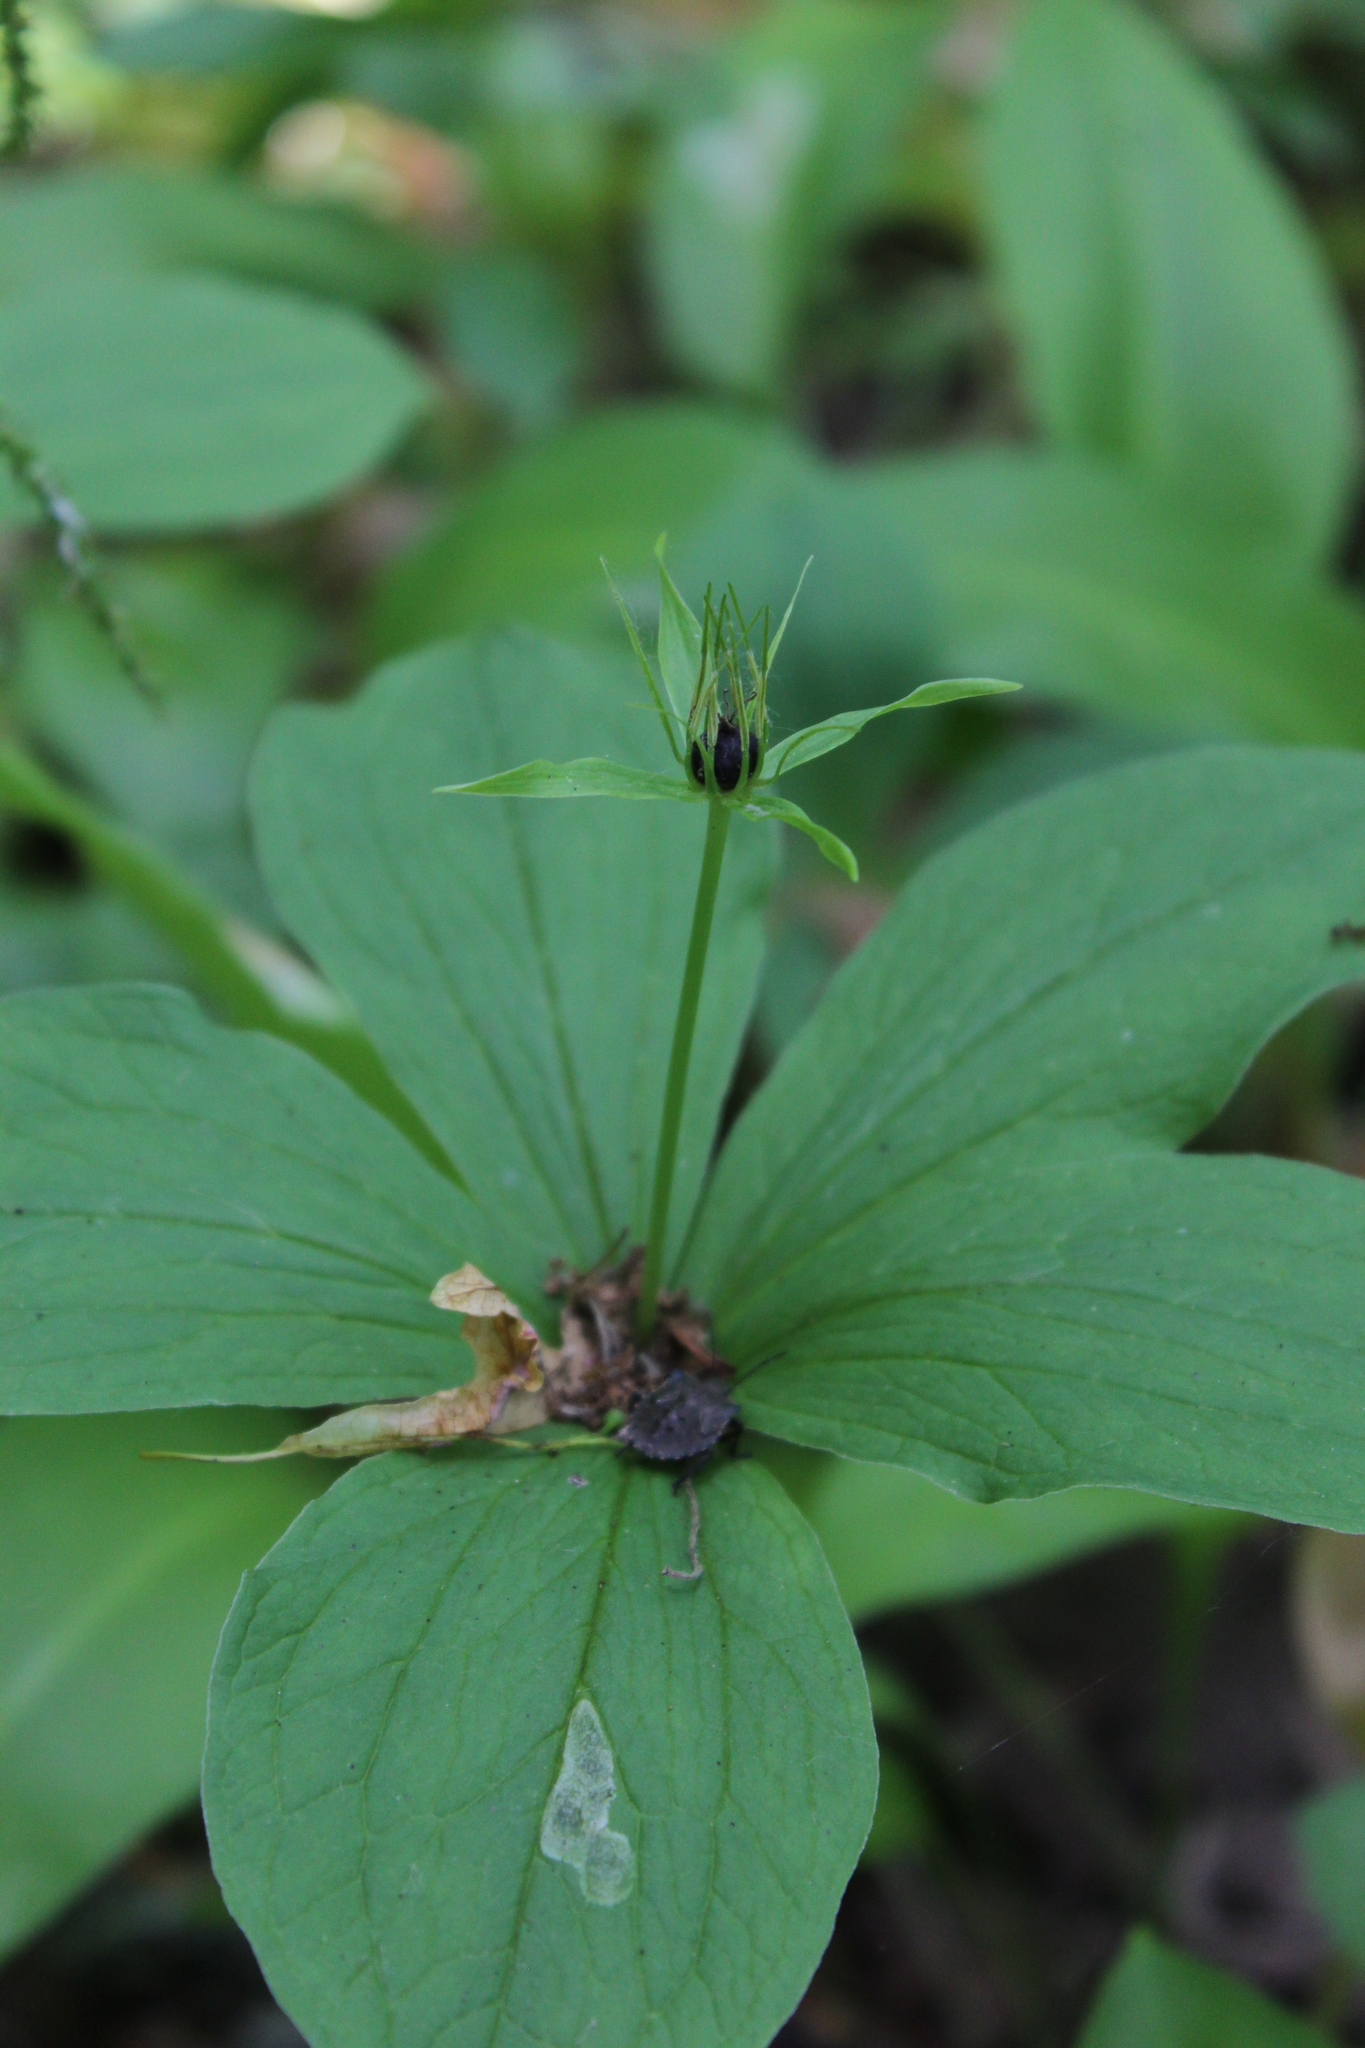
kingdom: Plantae
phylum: Tracheophyta
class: Liliopsida
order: Liliales
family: Melanthiaceae
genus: Paris
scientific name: Paris quadrifolia
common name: Herb-paris
